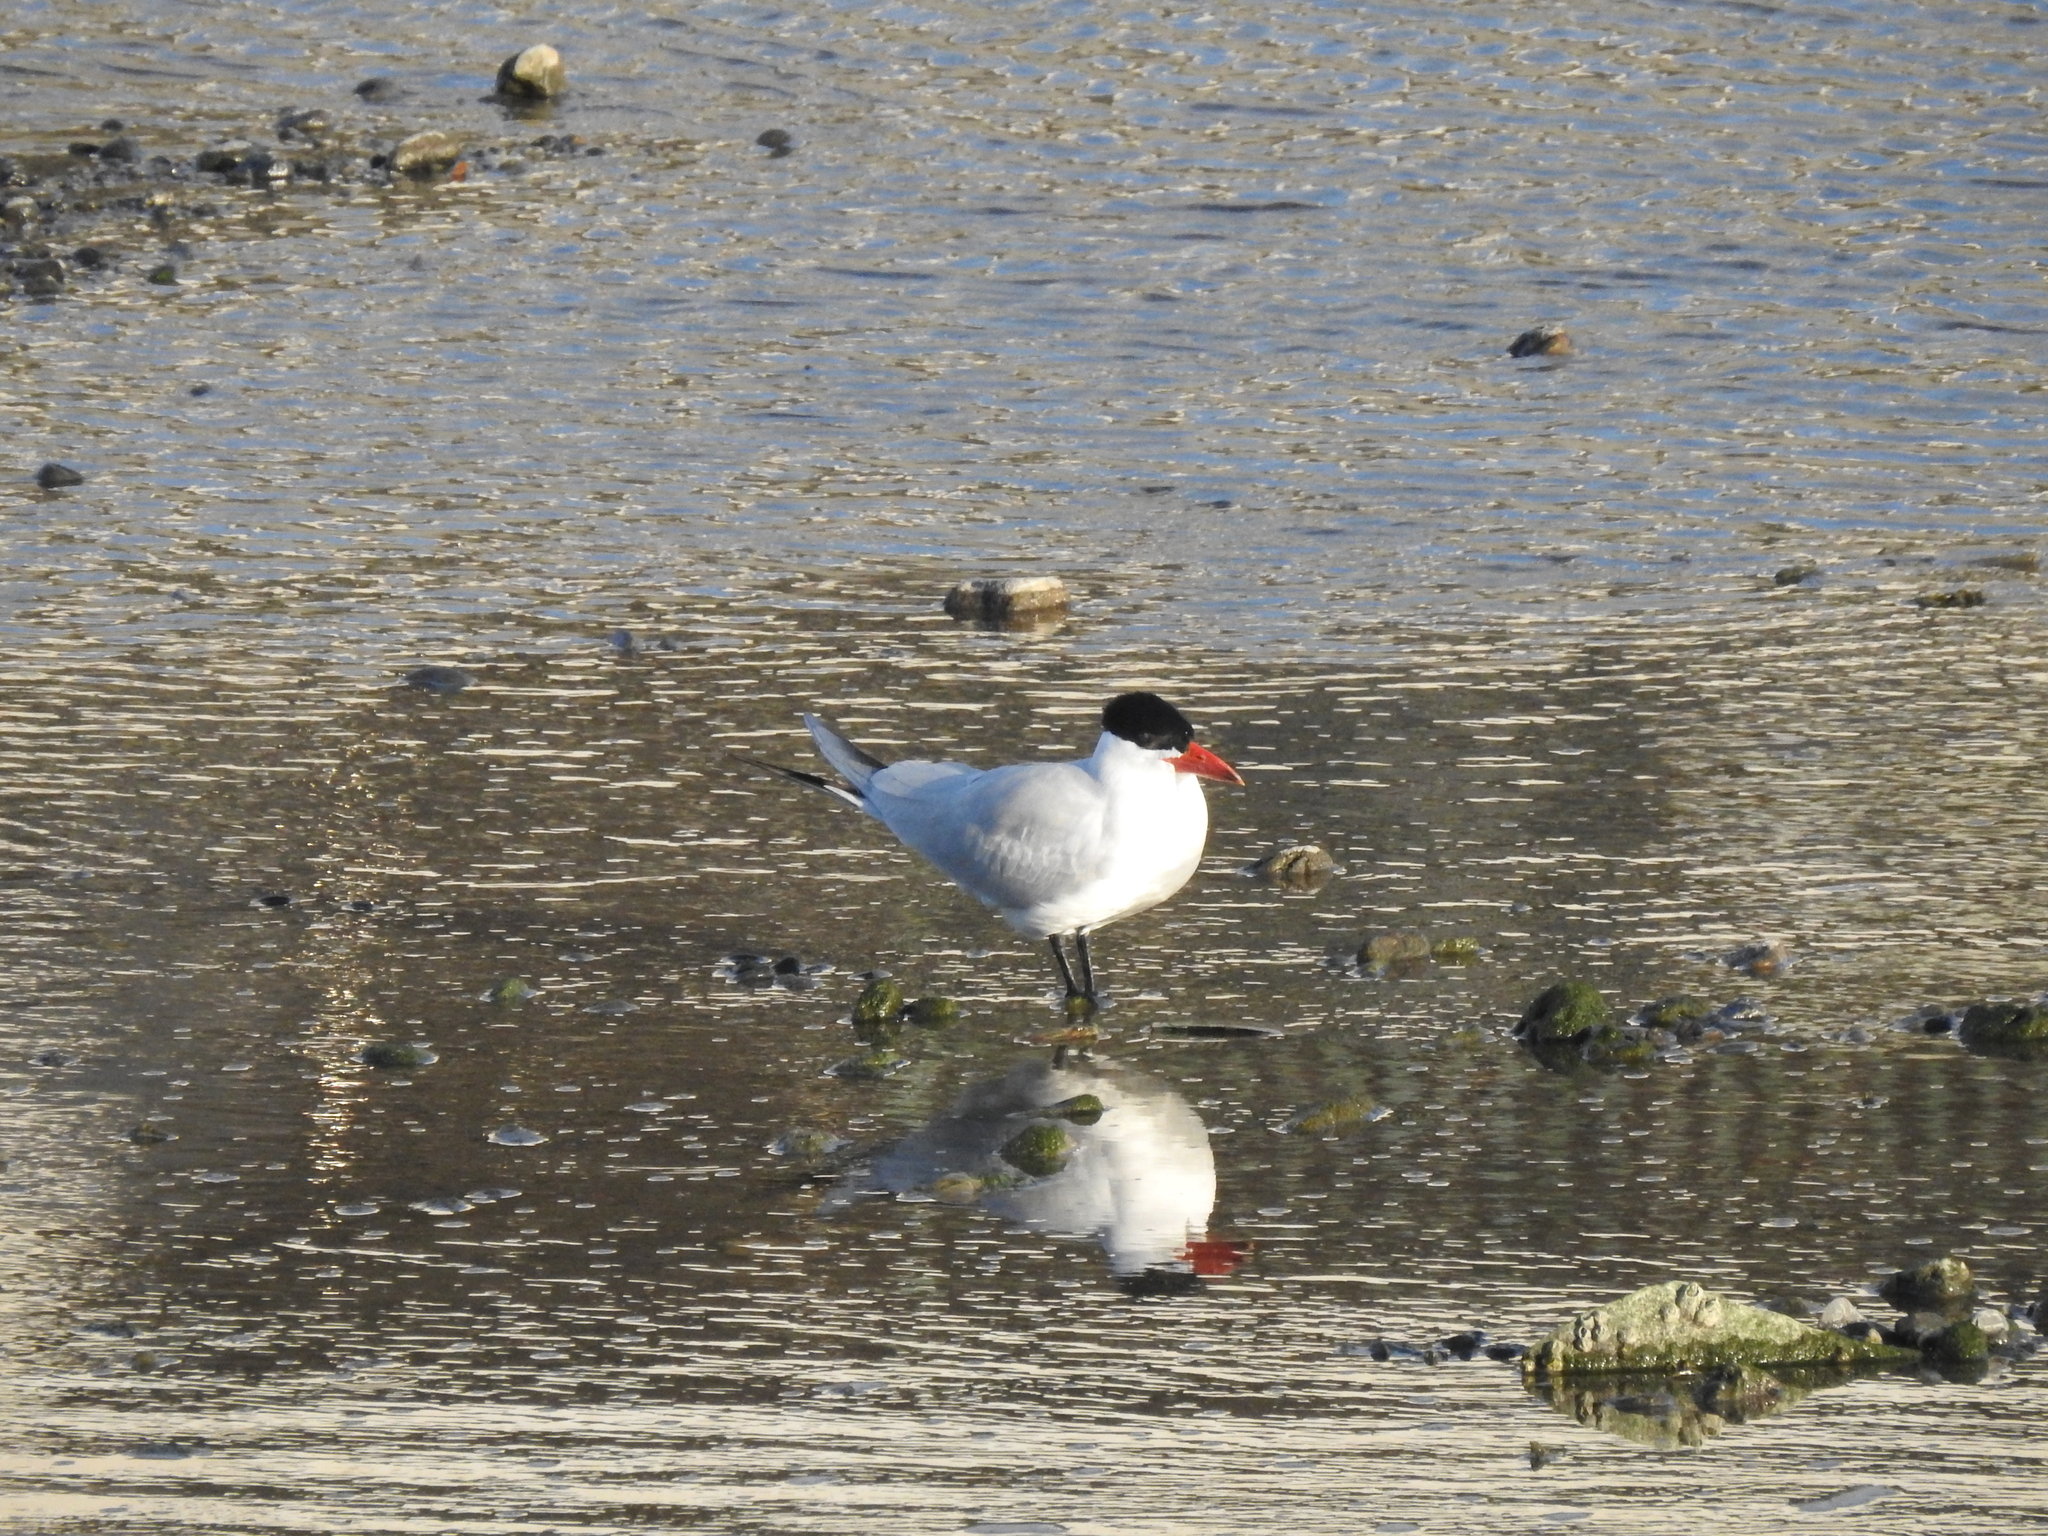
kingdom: Animalia
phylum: Chordata
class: Aves
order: Charadriiformes
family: Laridae
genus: Hydroprogne
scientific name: Hydroprogne caspia
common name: Caspian tern
